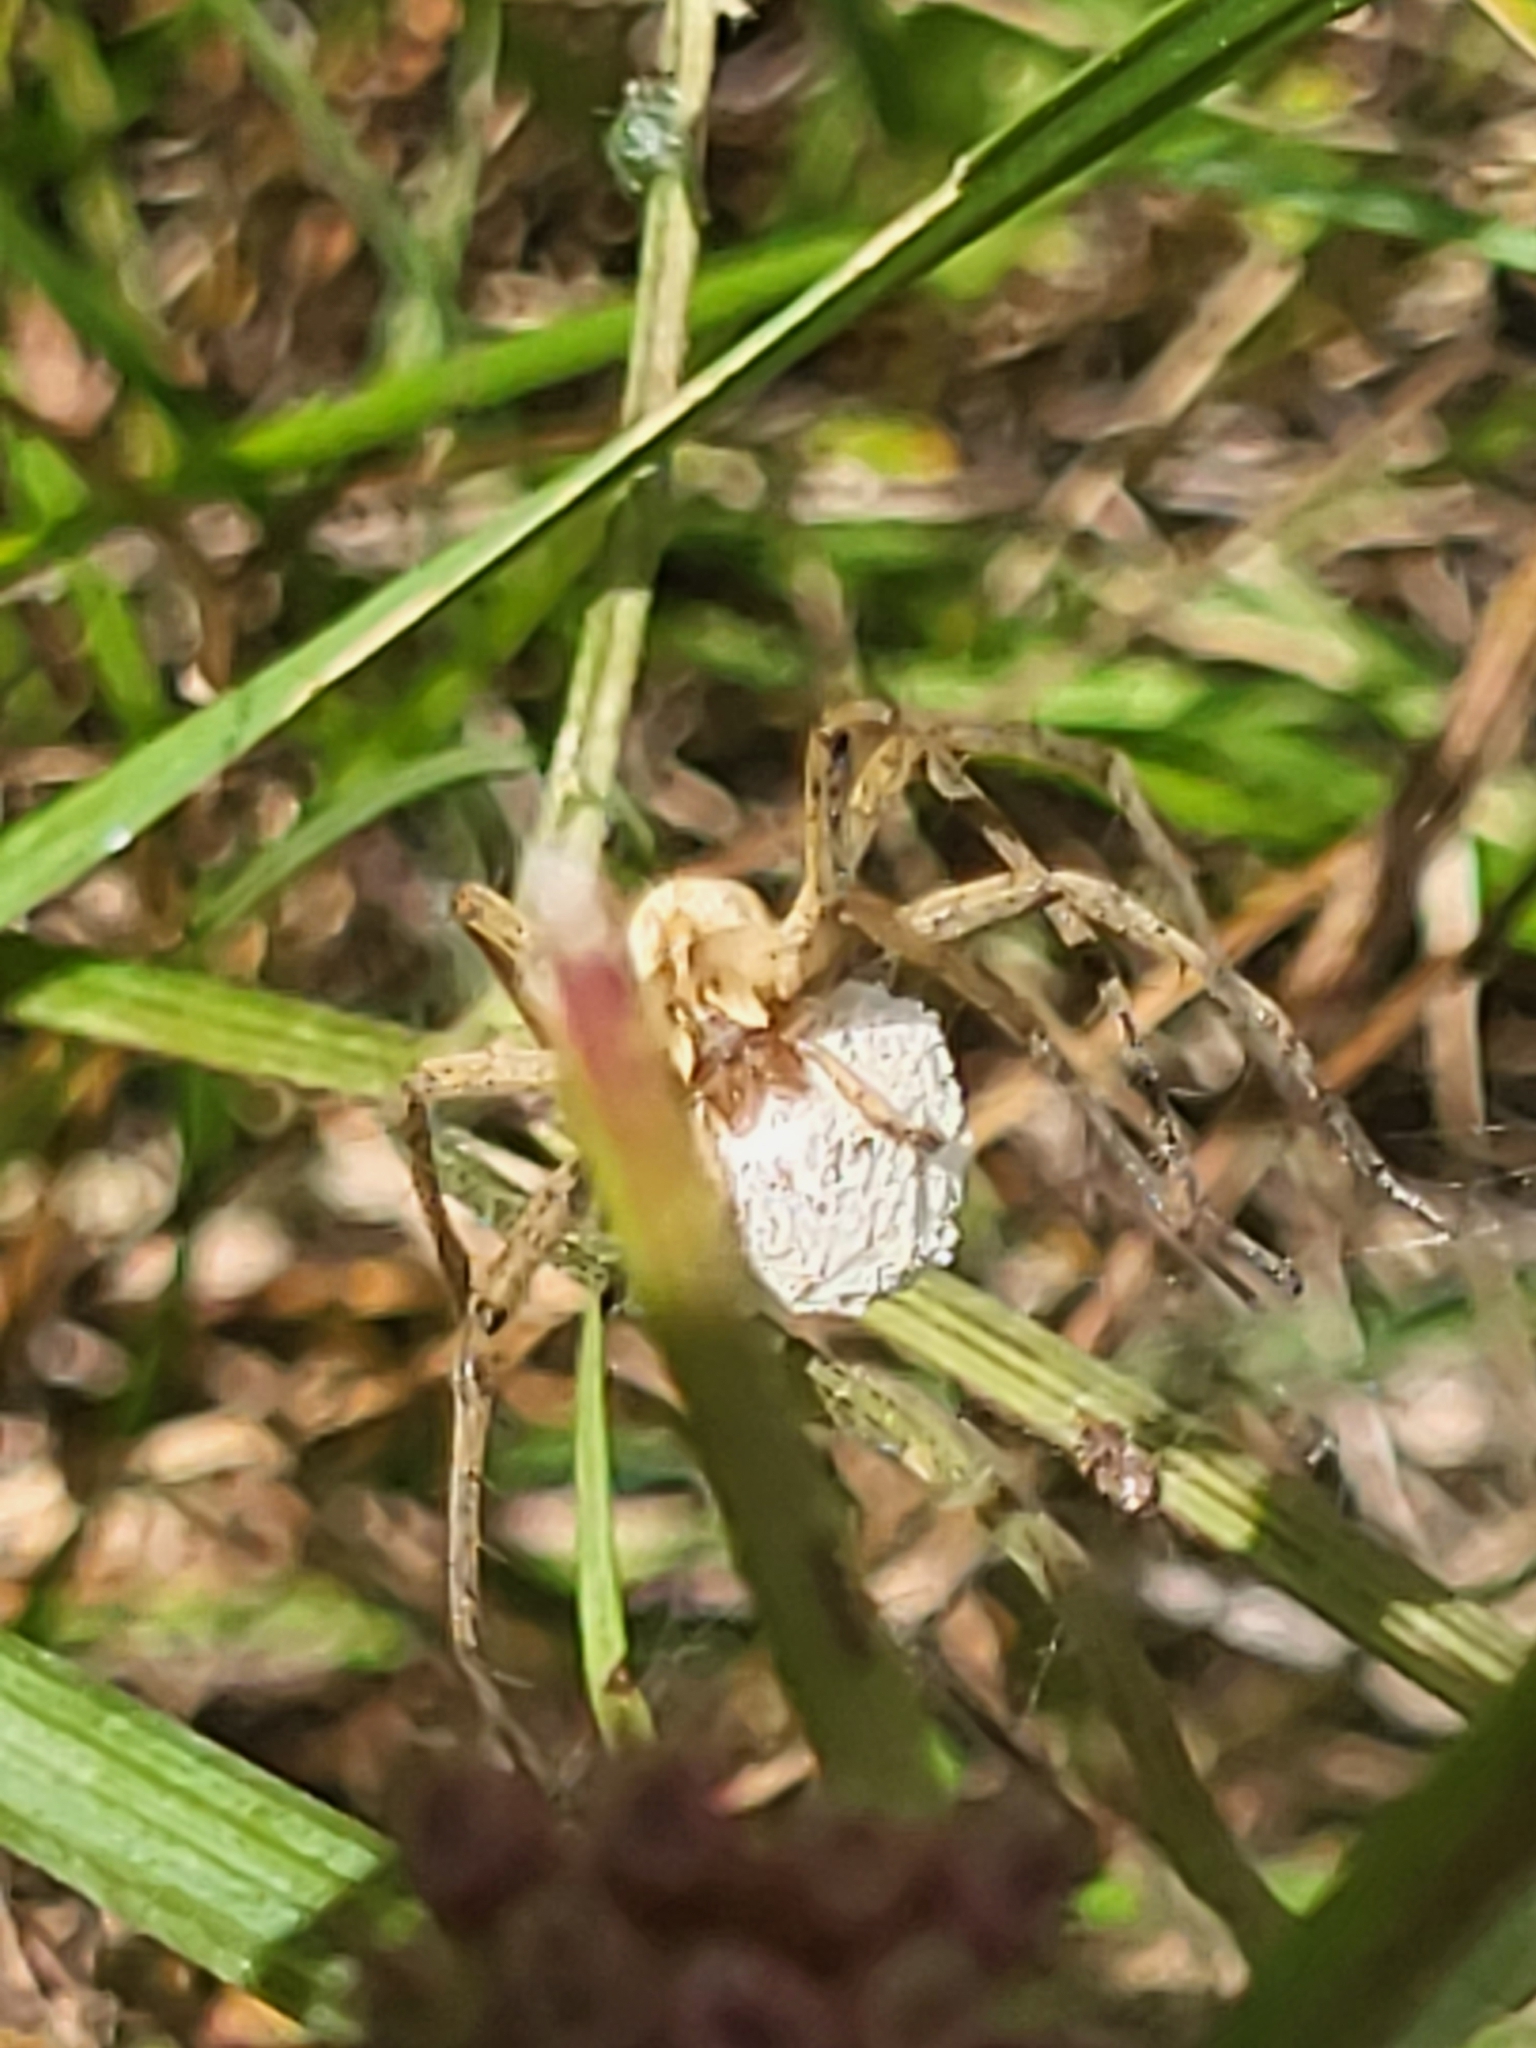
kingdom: Animalia
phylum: Arthropoda
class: Arachnida
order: Araneae
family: Pisauridae
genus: Pisaura
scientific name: Pisaura
